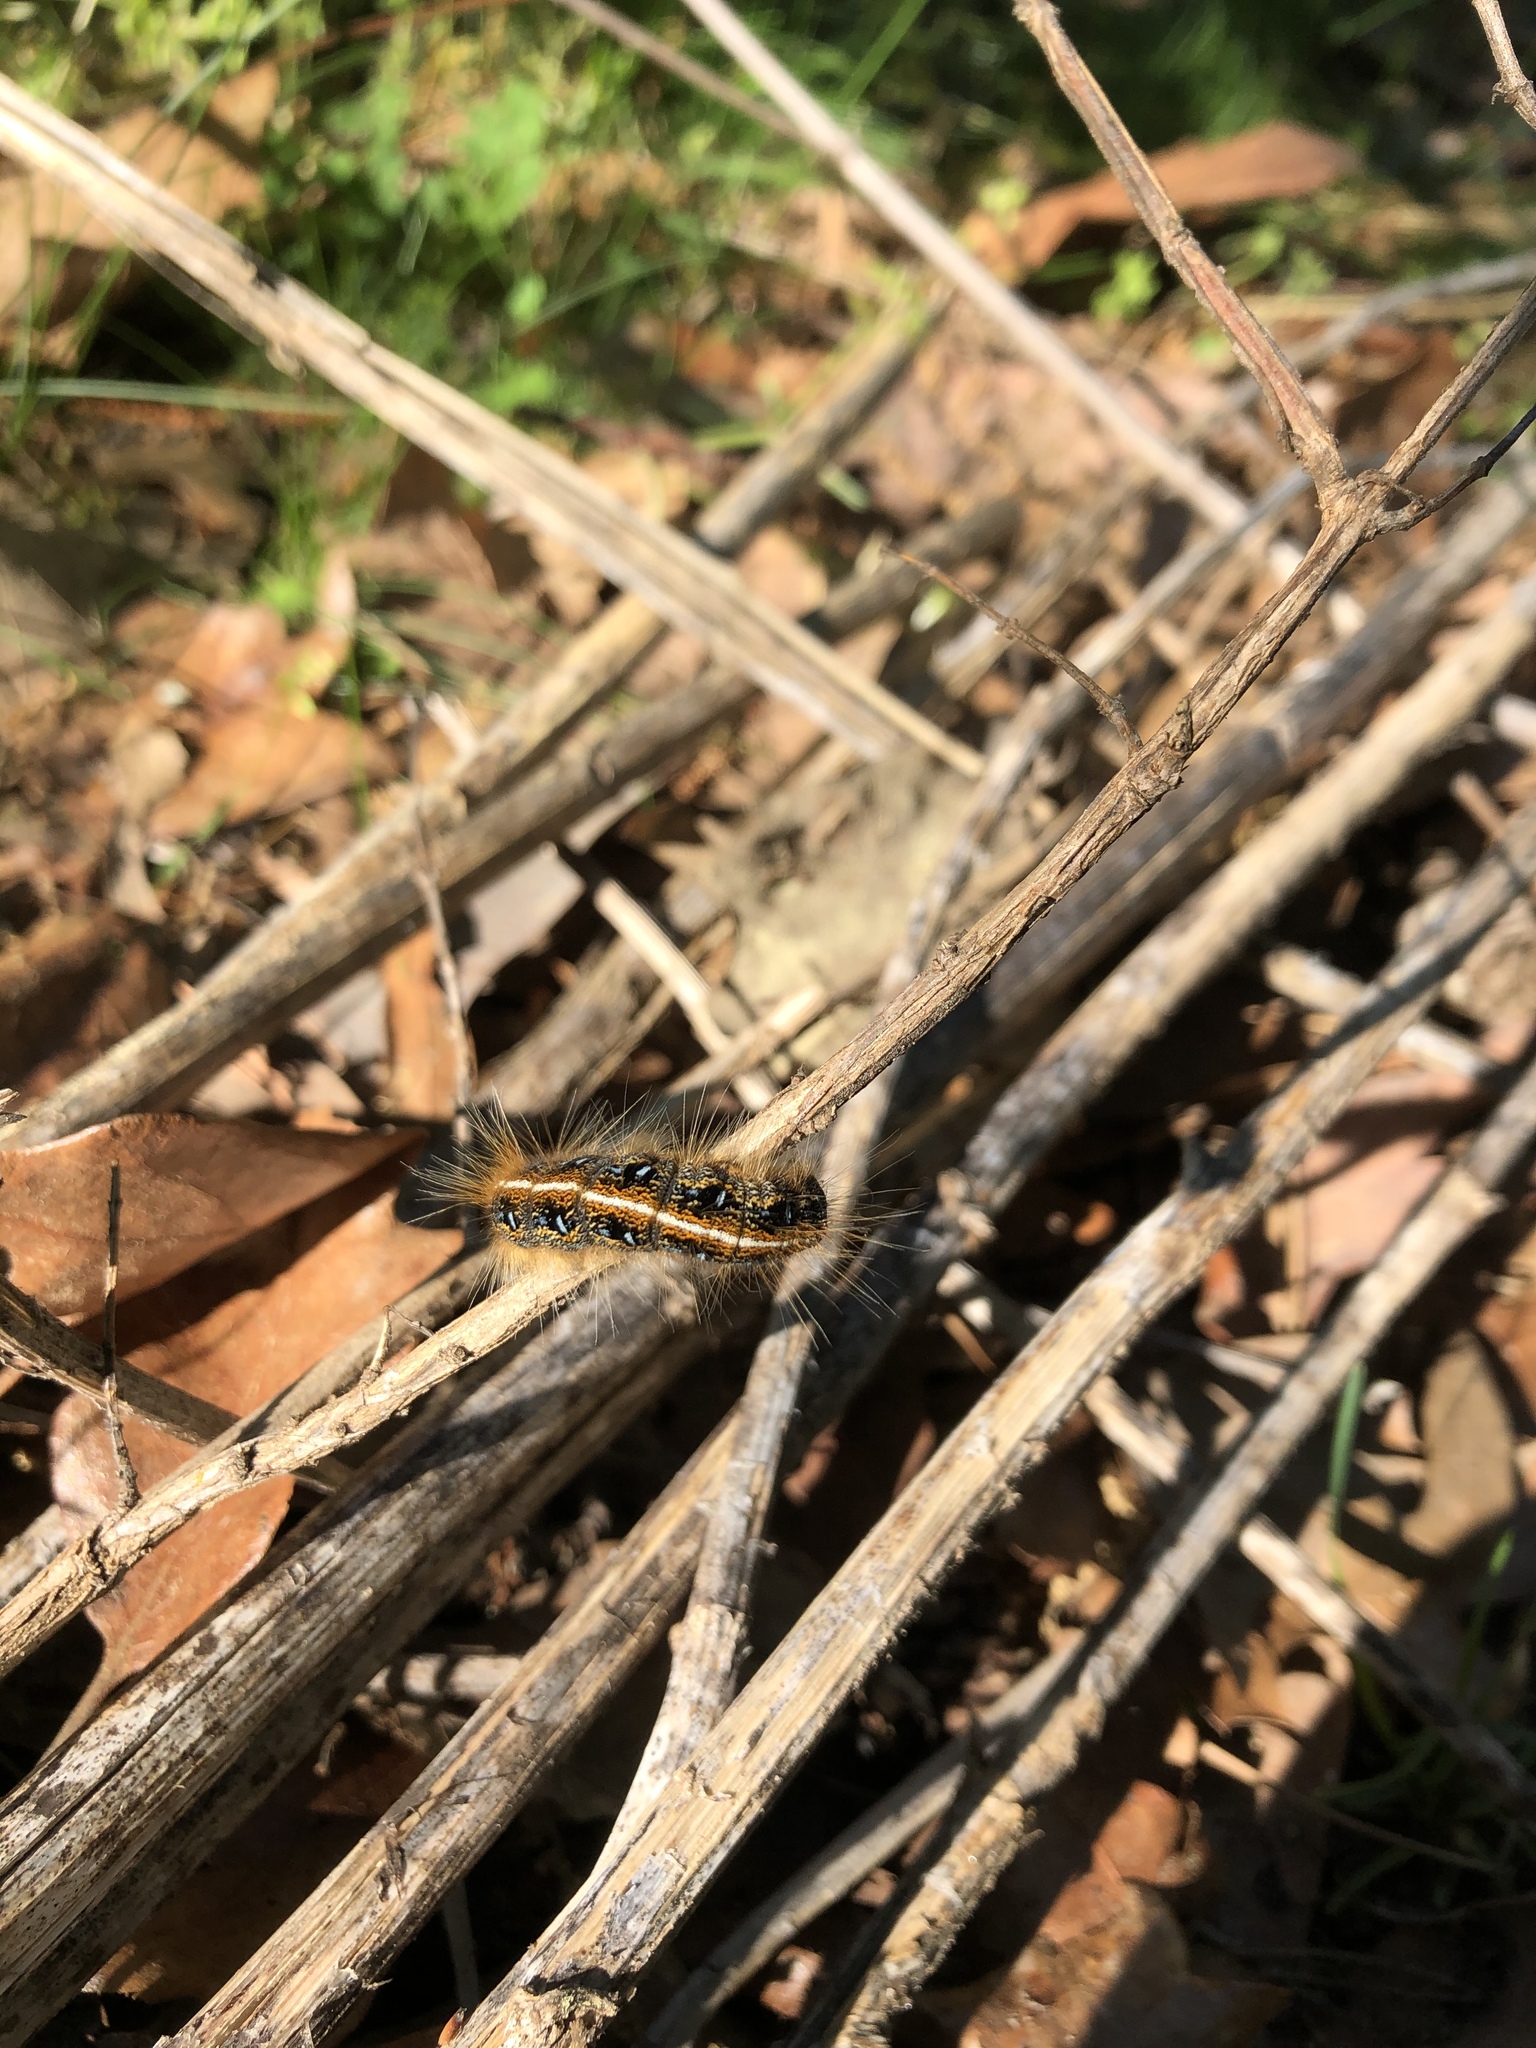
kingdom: Animalia
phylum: Arthropoda
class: Insecta
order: Lepidoptera
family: Lasiocampidae
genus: Malacosoma
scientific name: Malacosoma americana
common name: Eastern tent caterpillar moth
